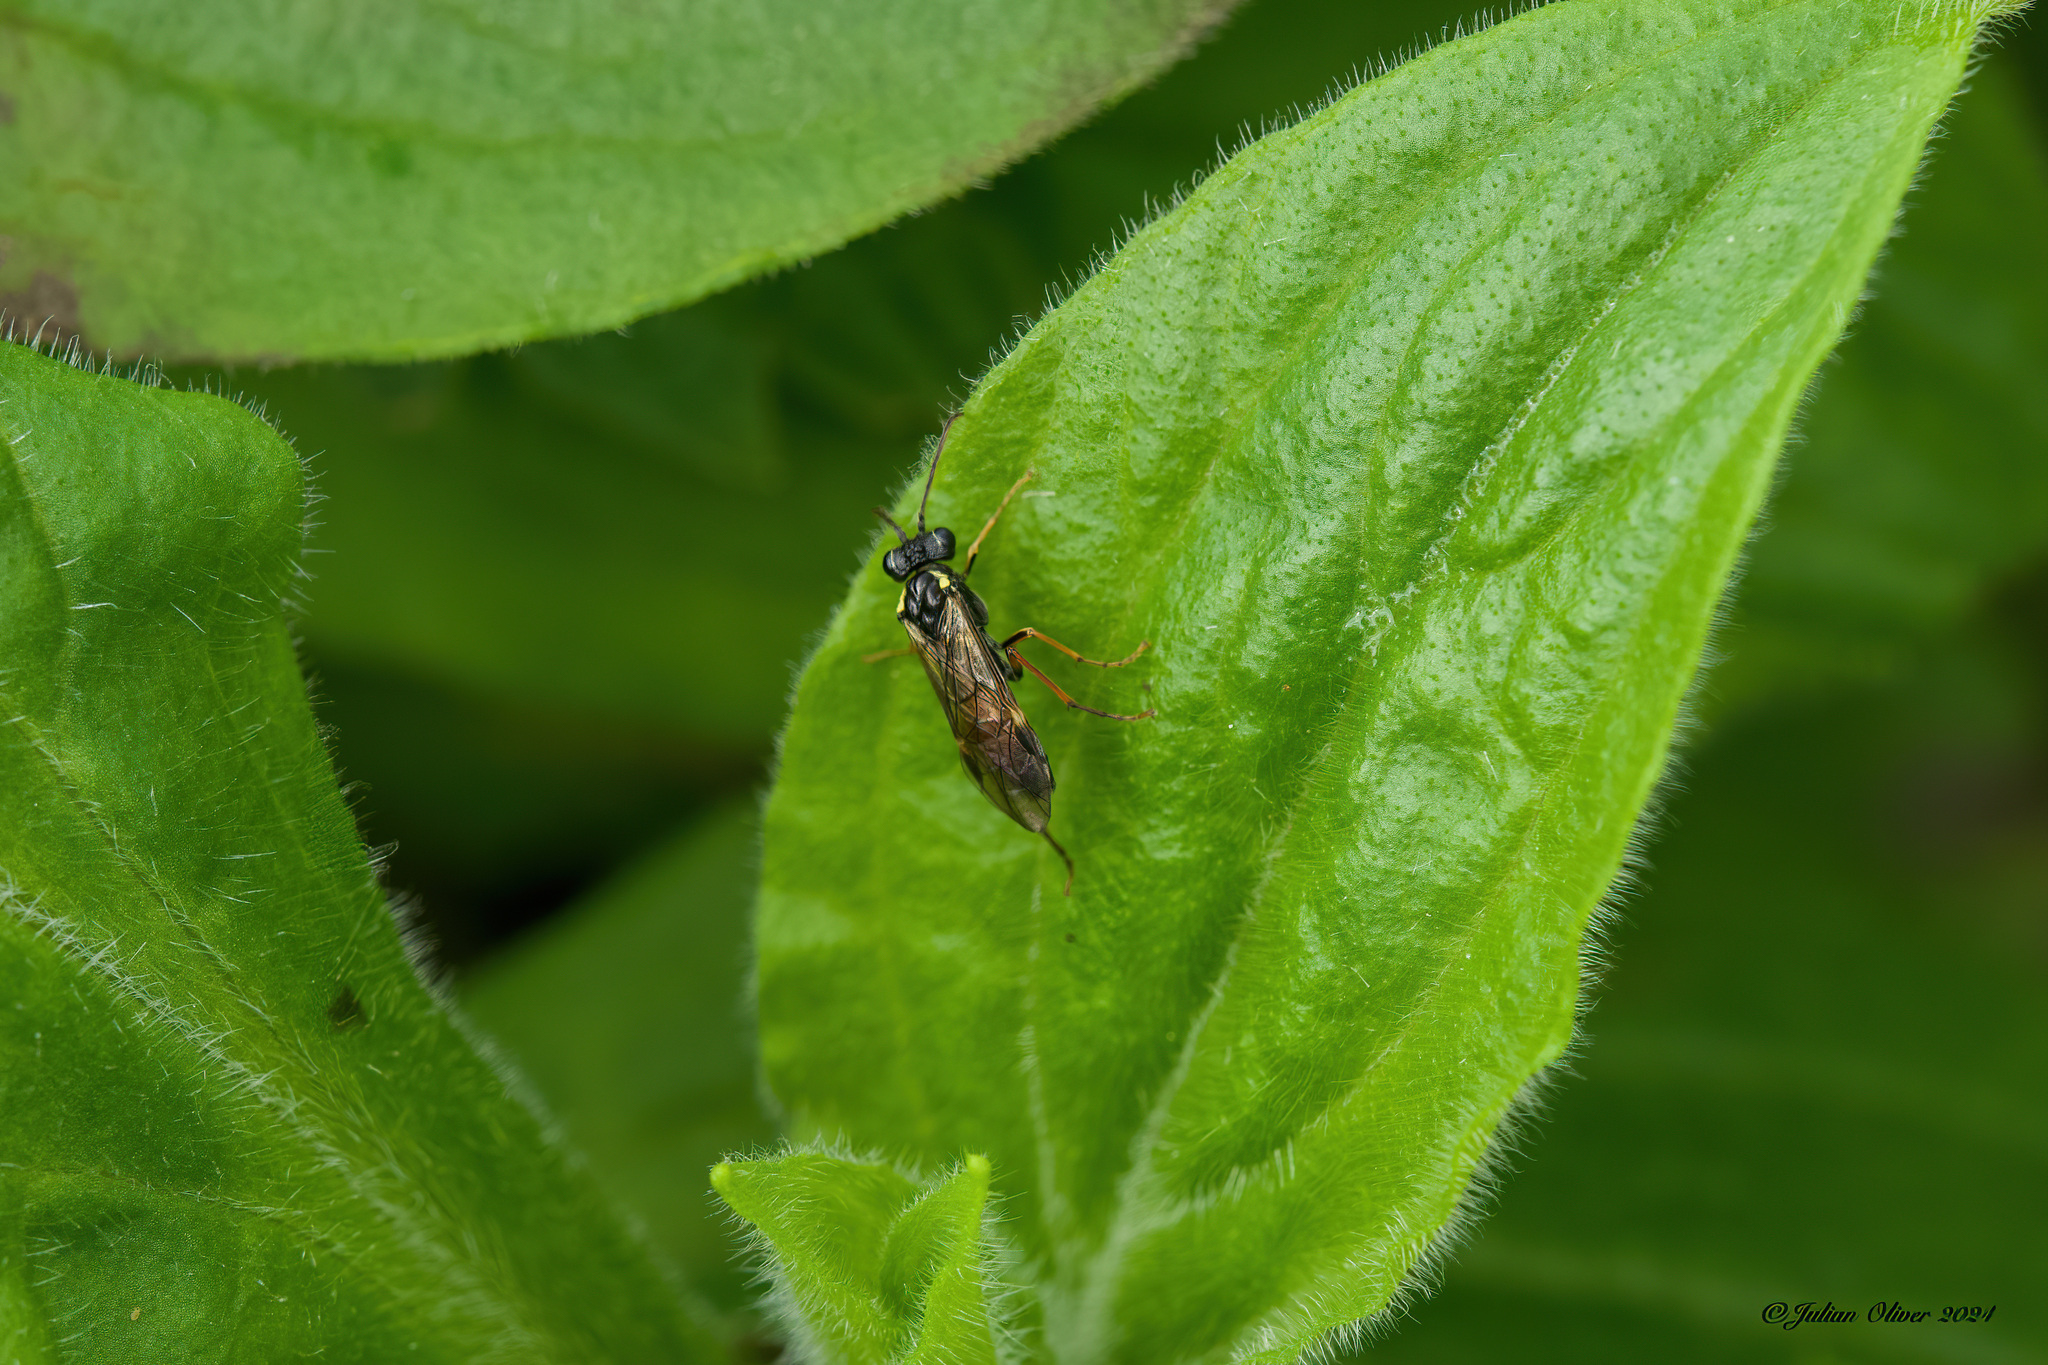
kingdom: Animalia
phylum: Arthropoda
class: Insecta
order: Hymenoptera
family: Tenthredinidae
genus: Aglaostigma
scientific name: Aglaostigma aucupariae
